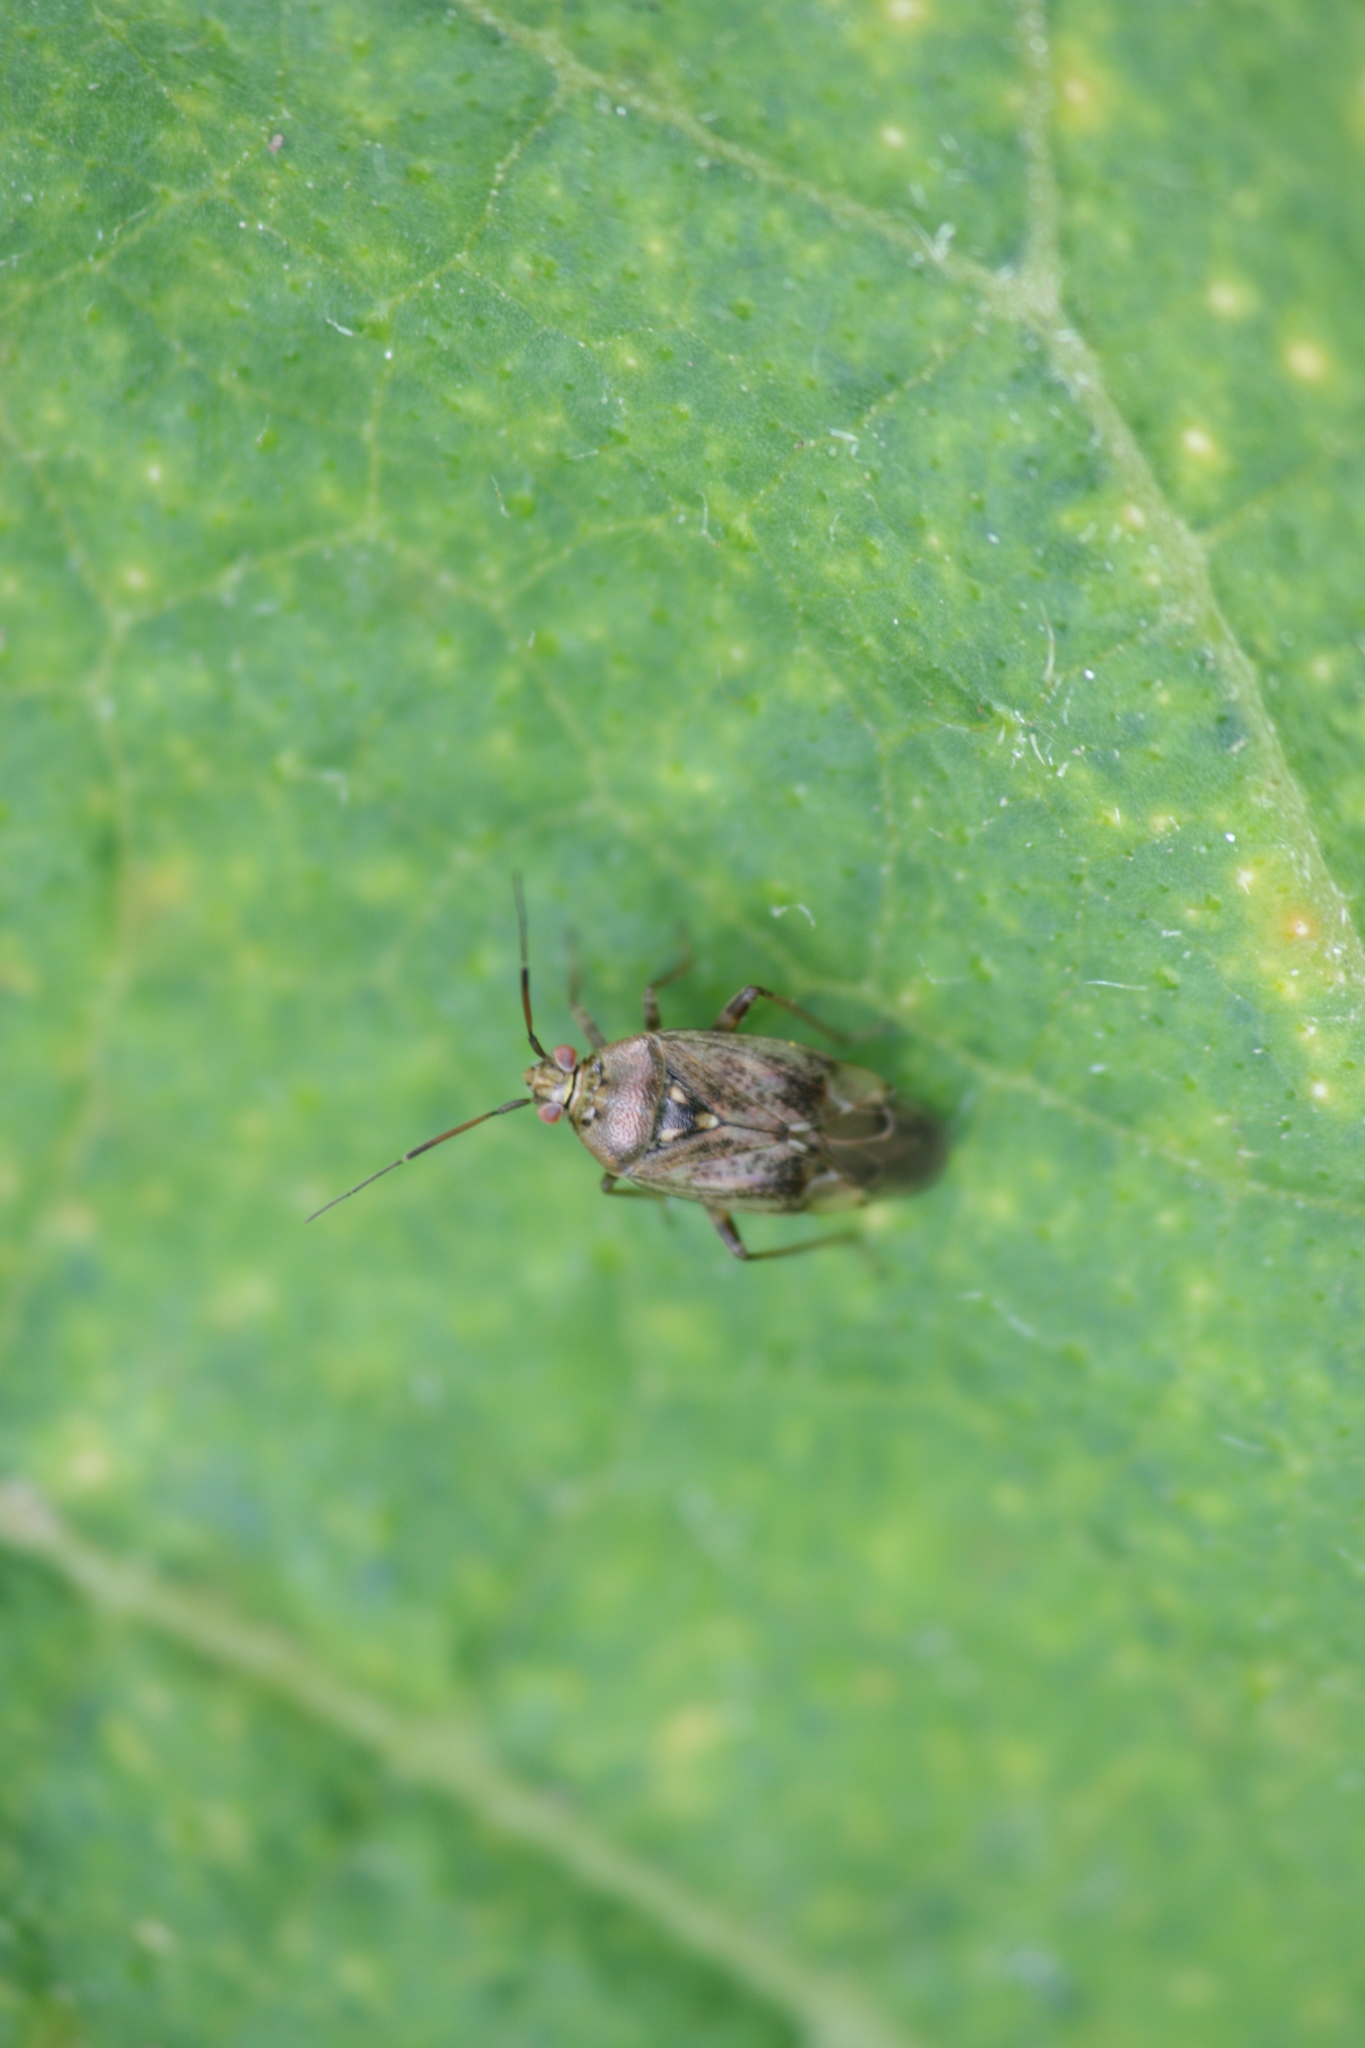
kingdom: Animalia
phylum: Arthropoda
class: Insecta
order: Hemiptera
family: Miridae
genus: Lygus
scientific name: Lygus rugulipennis
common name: European tarnished plant bug
